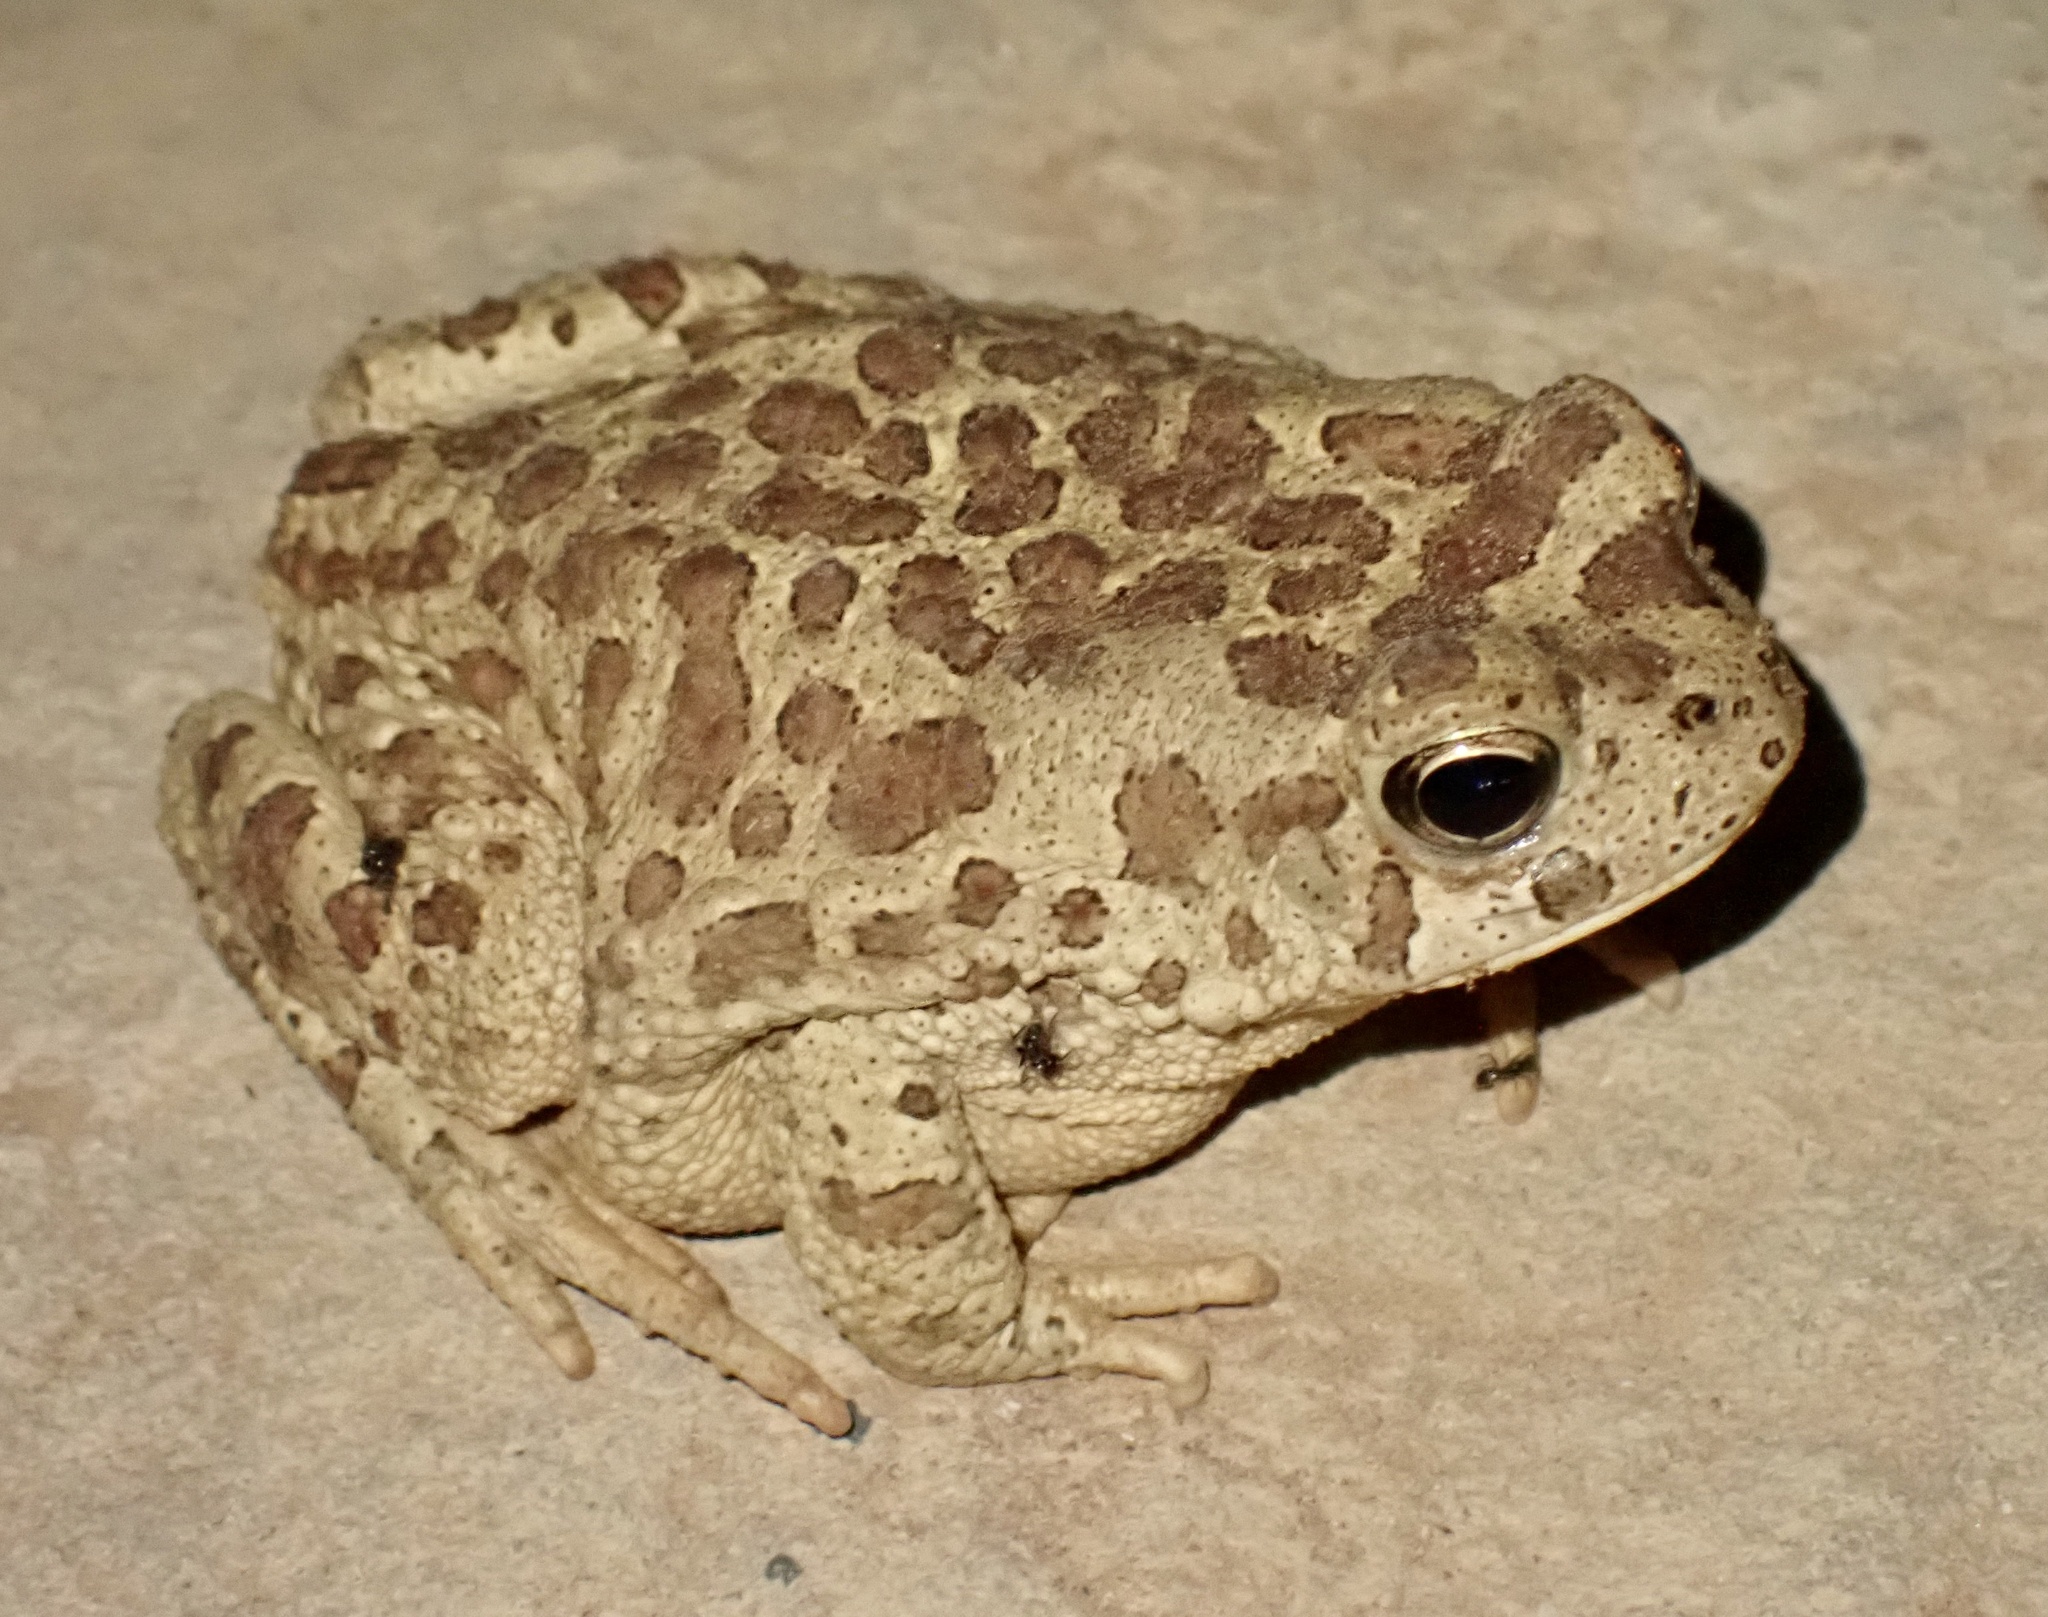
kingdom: Animalia
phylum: Chordata
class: Amphibia
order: Anura
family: Bufonidae
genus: Sclerophrys
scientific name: Sclerophrys mauritanica
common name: Berber toad
